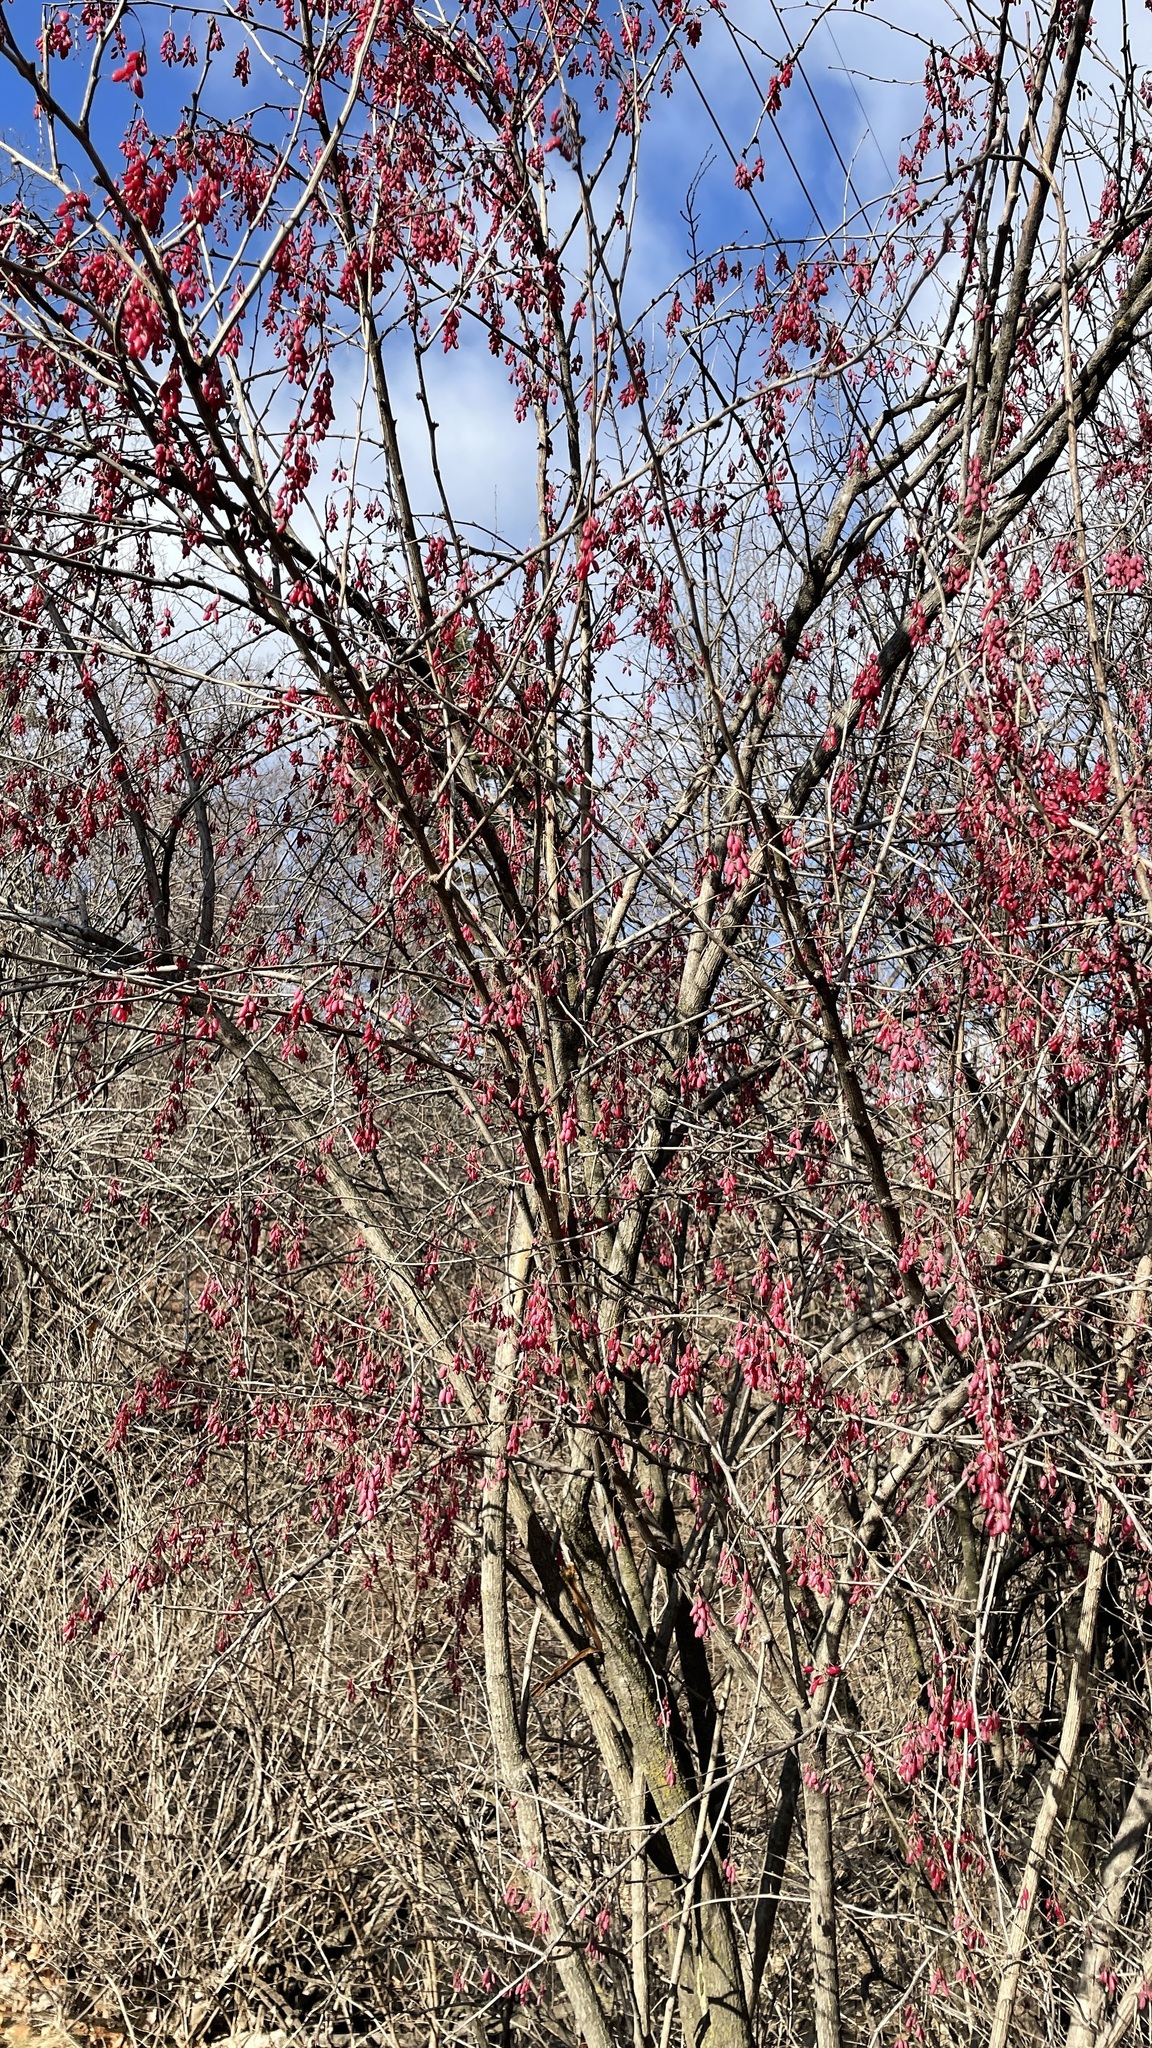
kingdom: Plantae
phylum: Tracheophyta
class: Magnoliopsida
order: Ranunculales
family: Berberidaceae
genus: Berberis
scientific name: Berberis vulgaris
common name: Barberry
